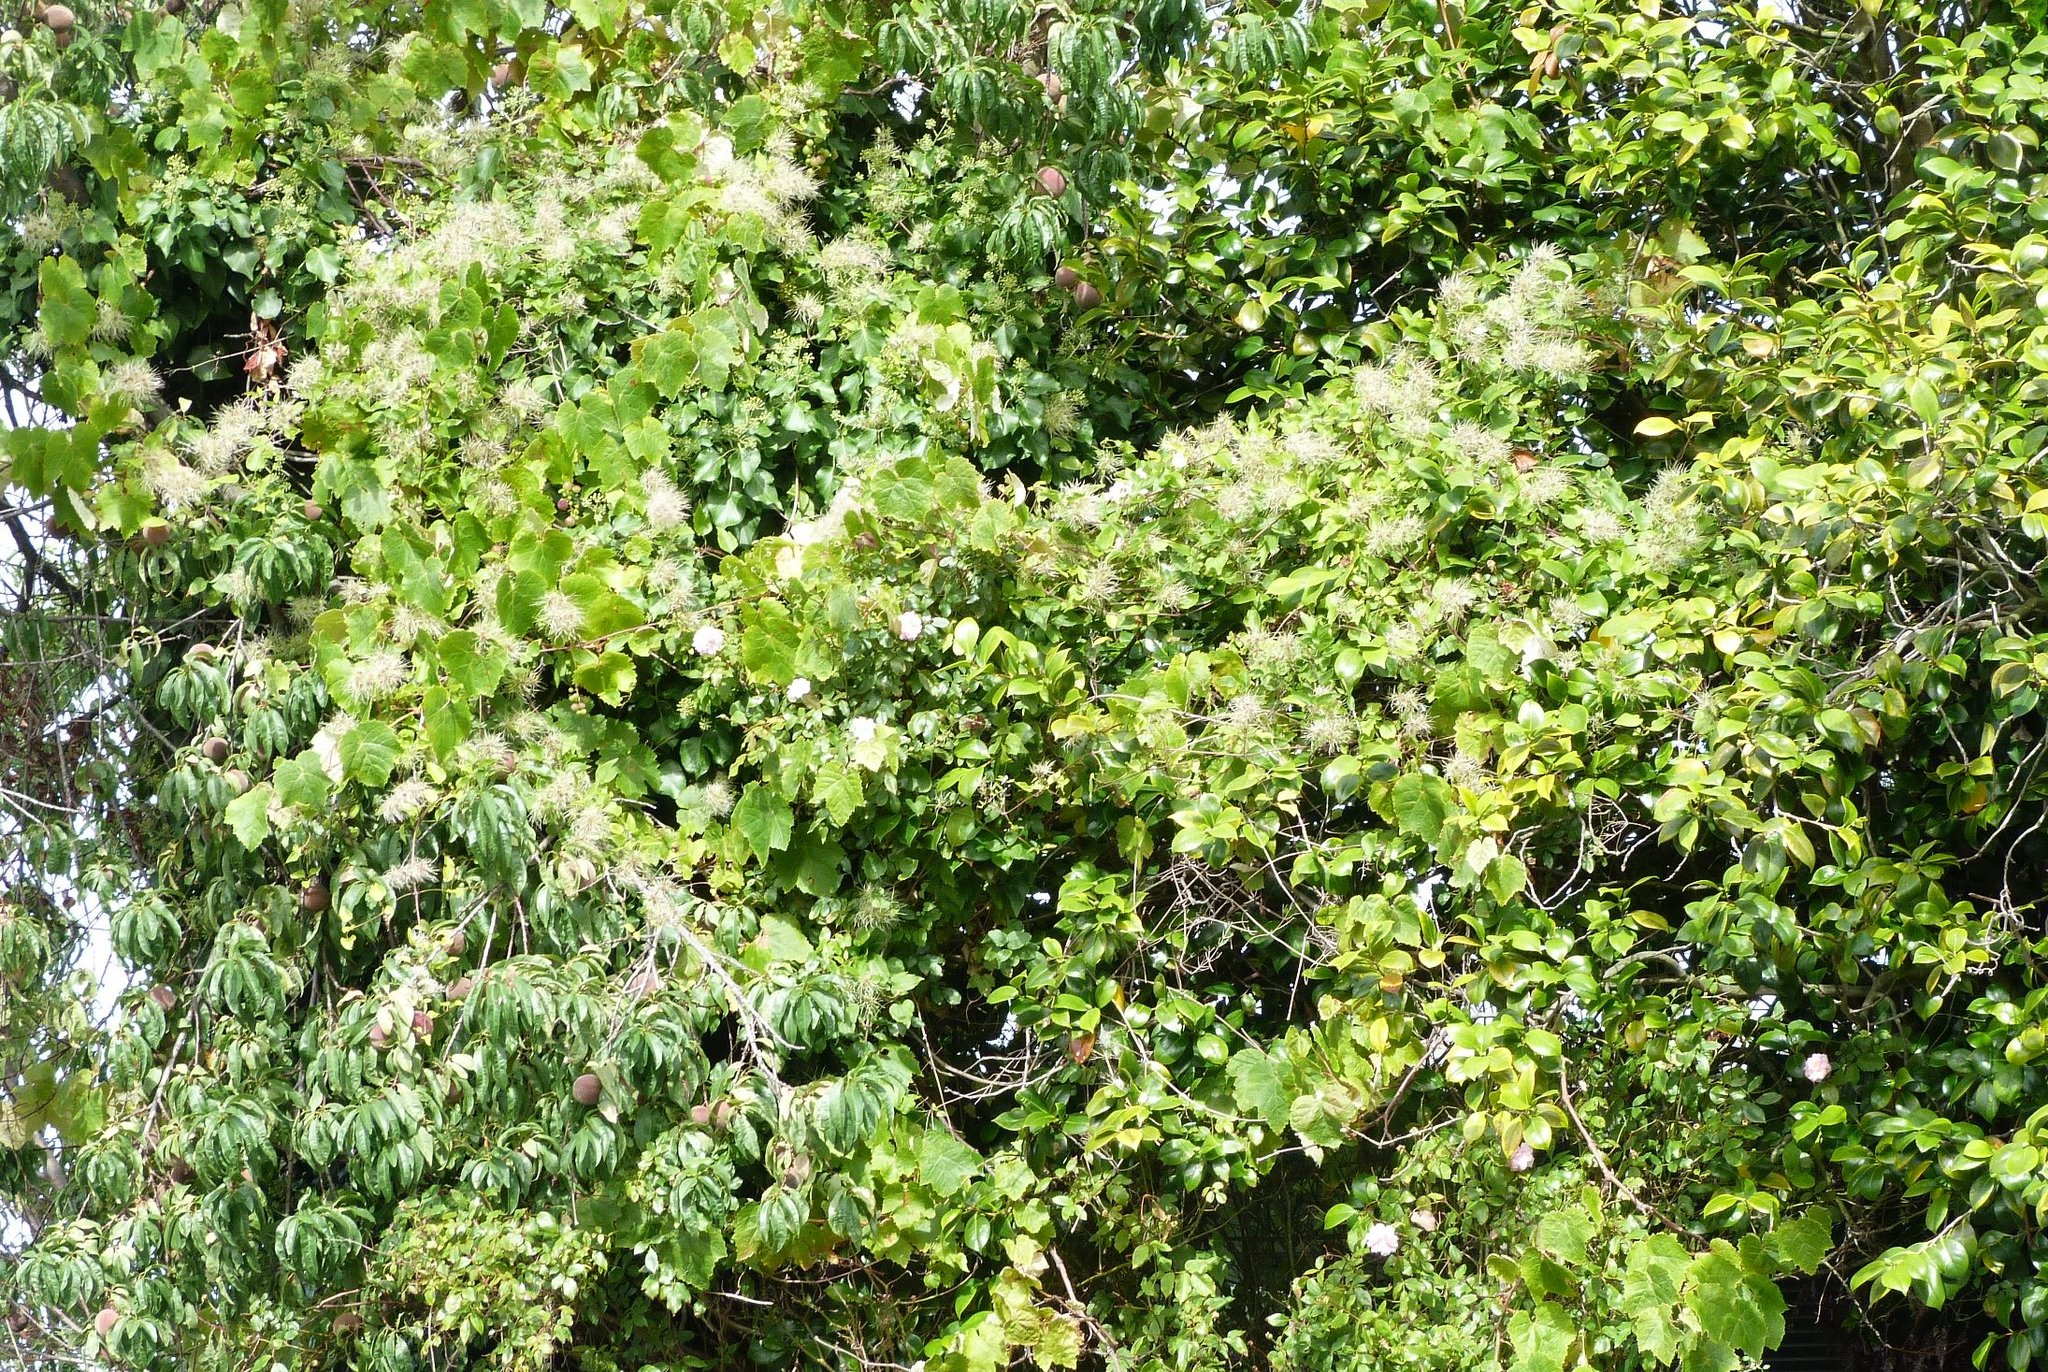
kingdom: Plantae
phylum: Tracheophyta
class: Magnoliopsida
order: Ranunculales
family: Ranunculaceae
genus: Clematis
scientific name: Clematis vitalba
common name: Evergreen clematis
